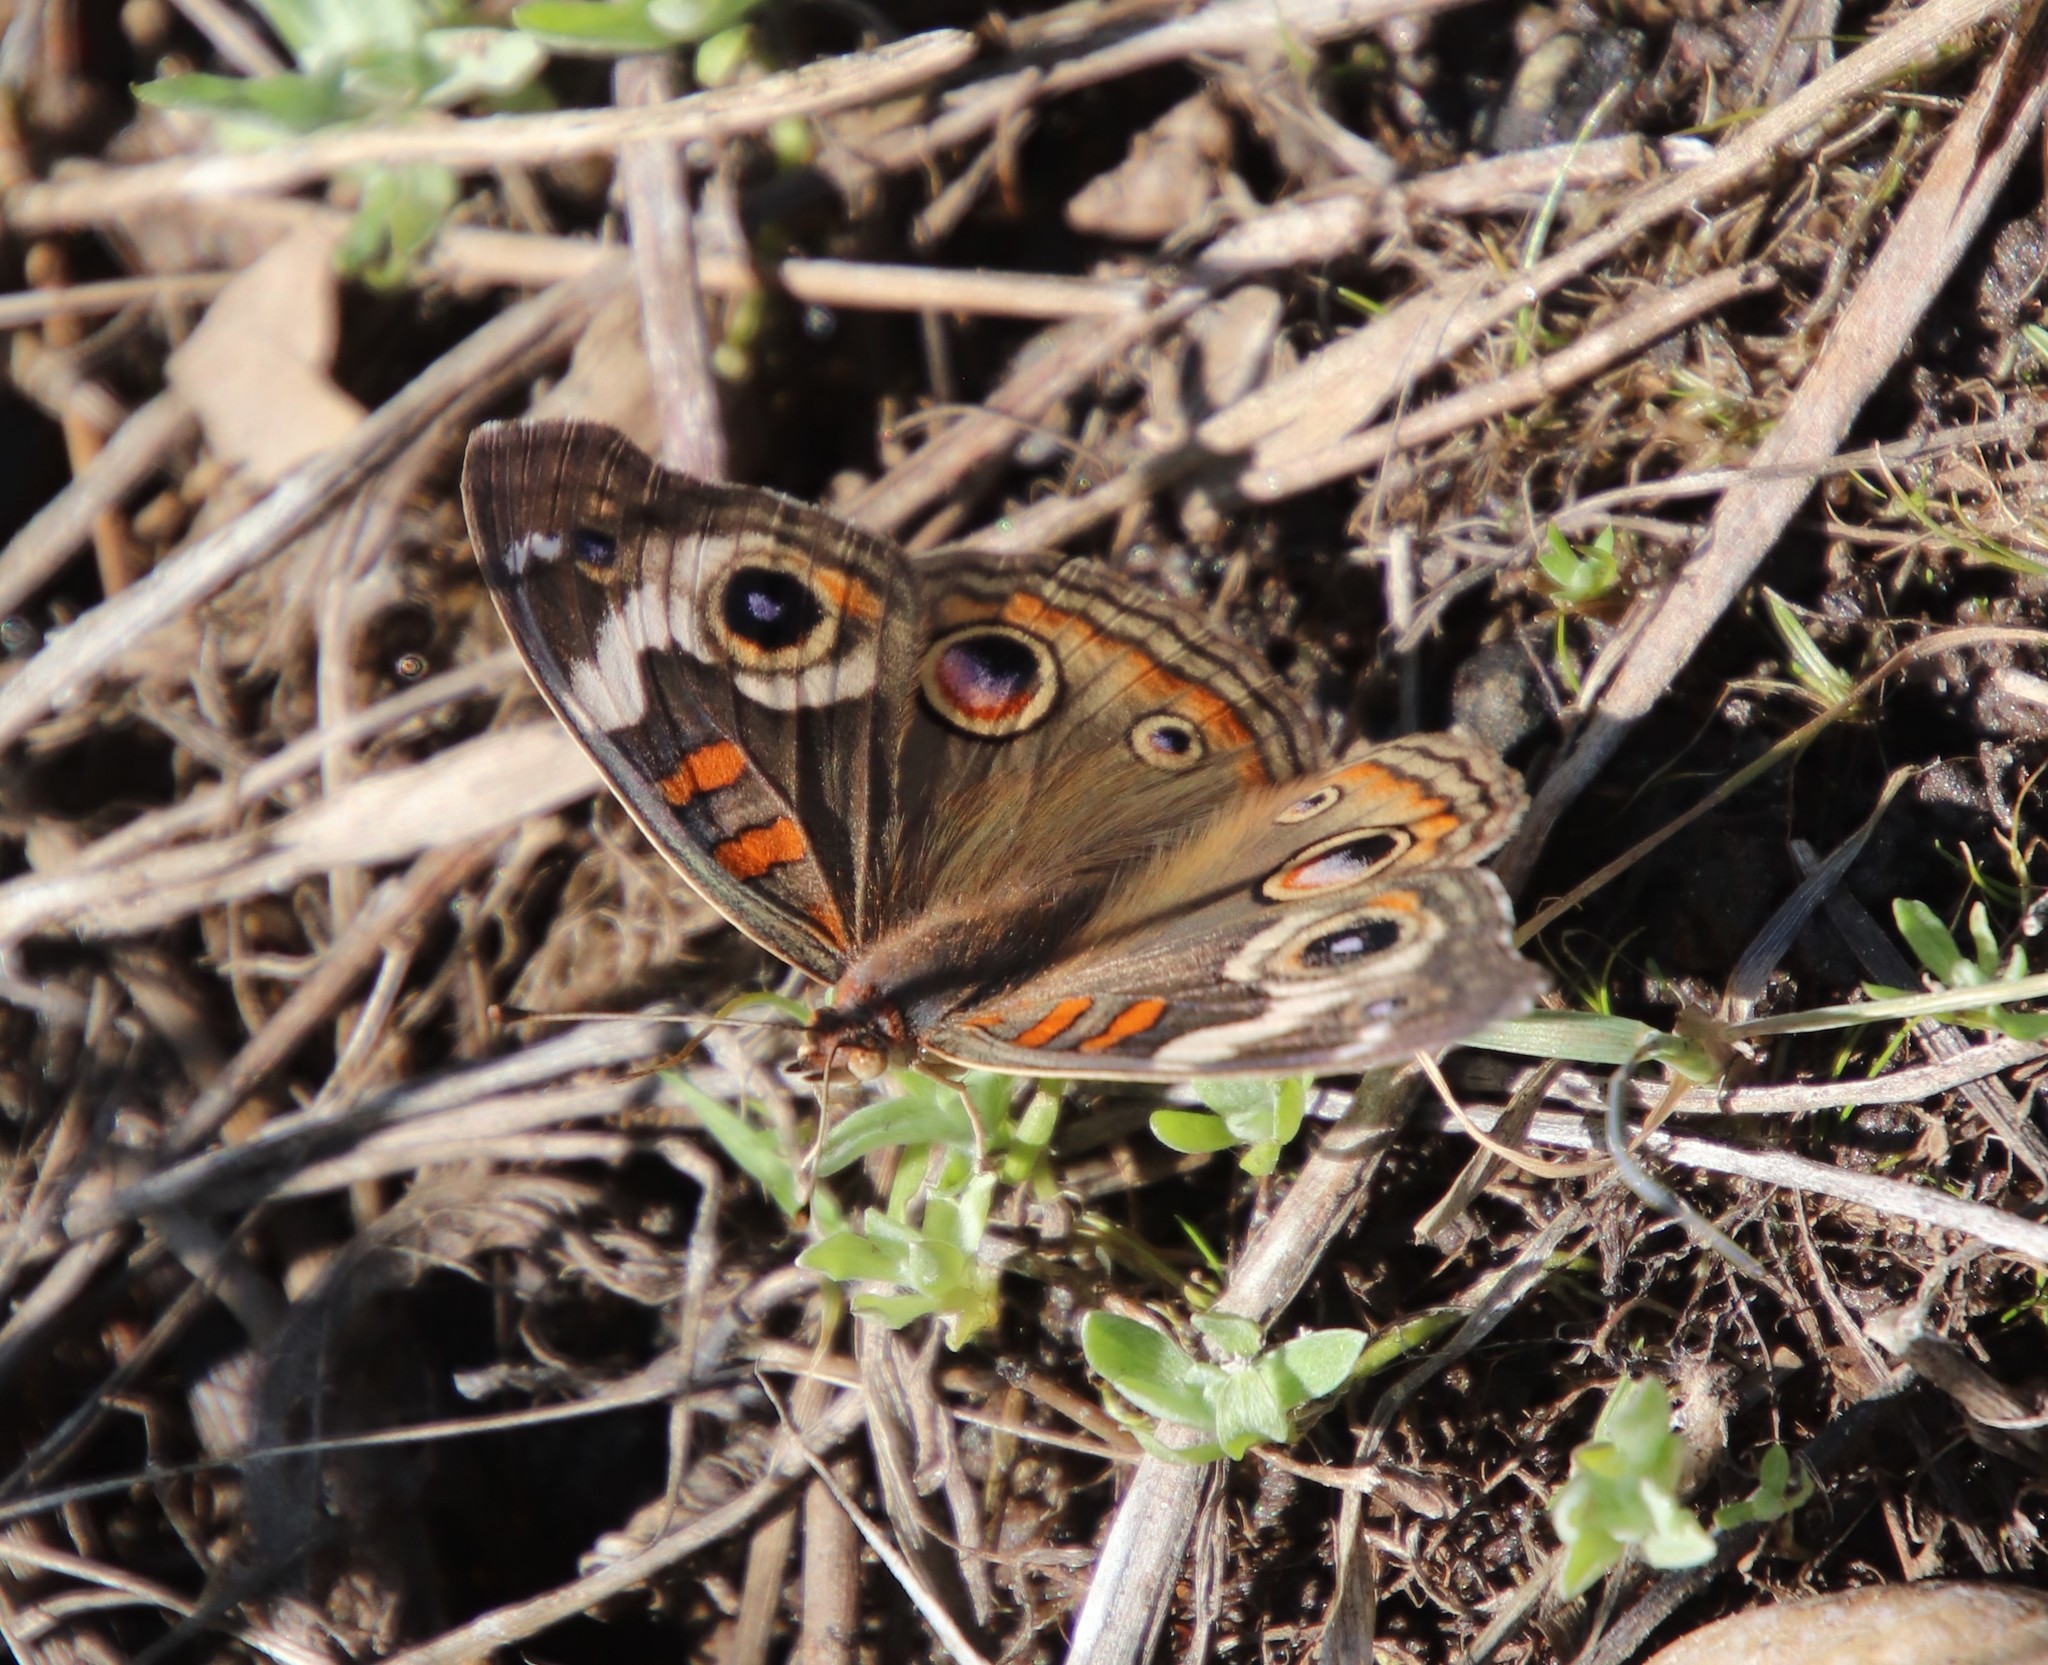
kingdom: Animalia
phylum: Arthropoda
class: Insecta
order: Lepidoptera
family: Nymphalidae
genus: Junonia
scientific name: Junonia grisea
